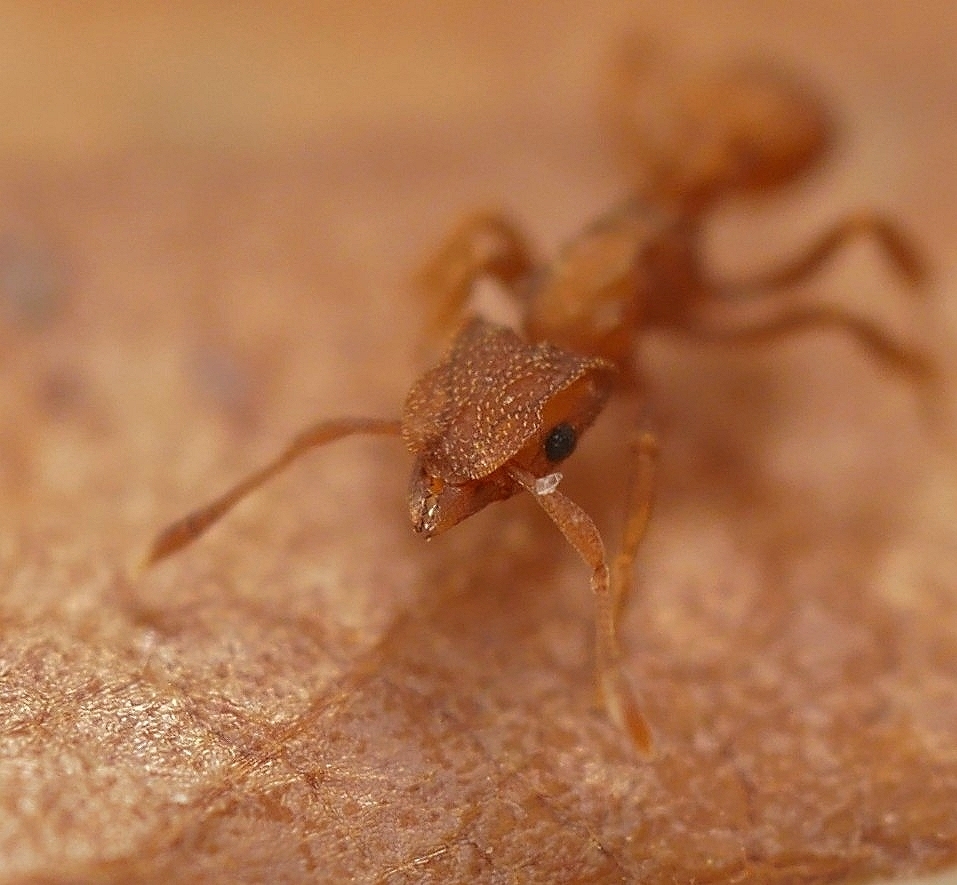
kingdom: Animalia
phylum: Arthropoda
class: Insecta
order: Hymenoptera
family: Formicidae
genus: Cyphomyrmex
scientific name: Cyphomyrmex wheeleri
